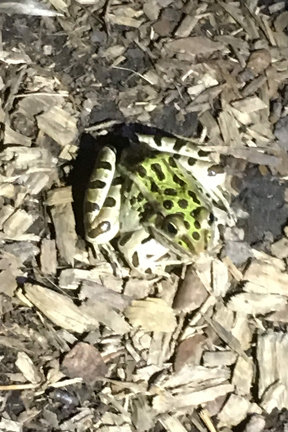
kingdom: Animalia
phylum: Chordata
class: Amphibia
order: Anura
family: Ranidae
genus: Lithobates
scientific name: Lithobates pipiens
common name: Northern leopard frog
